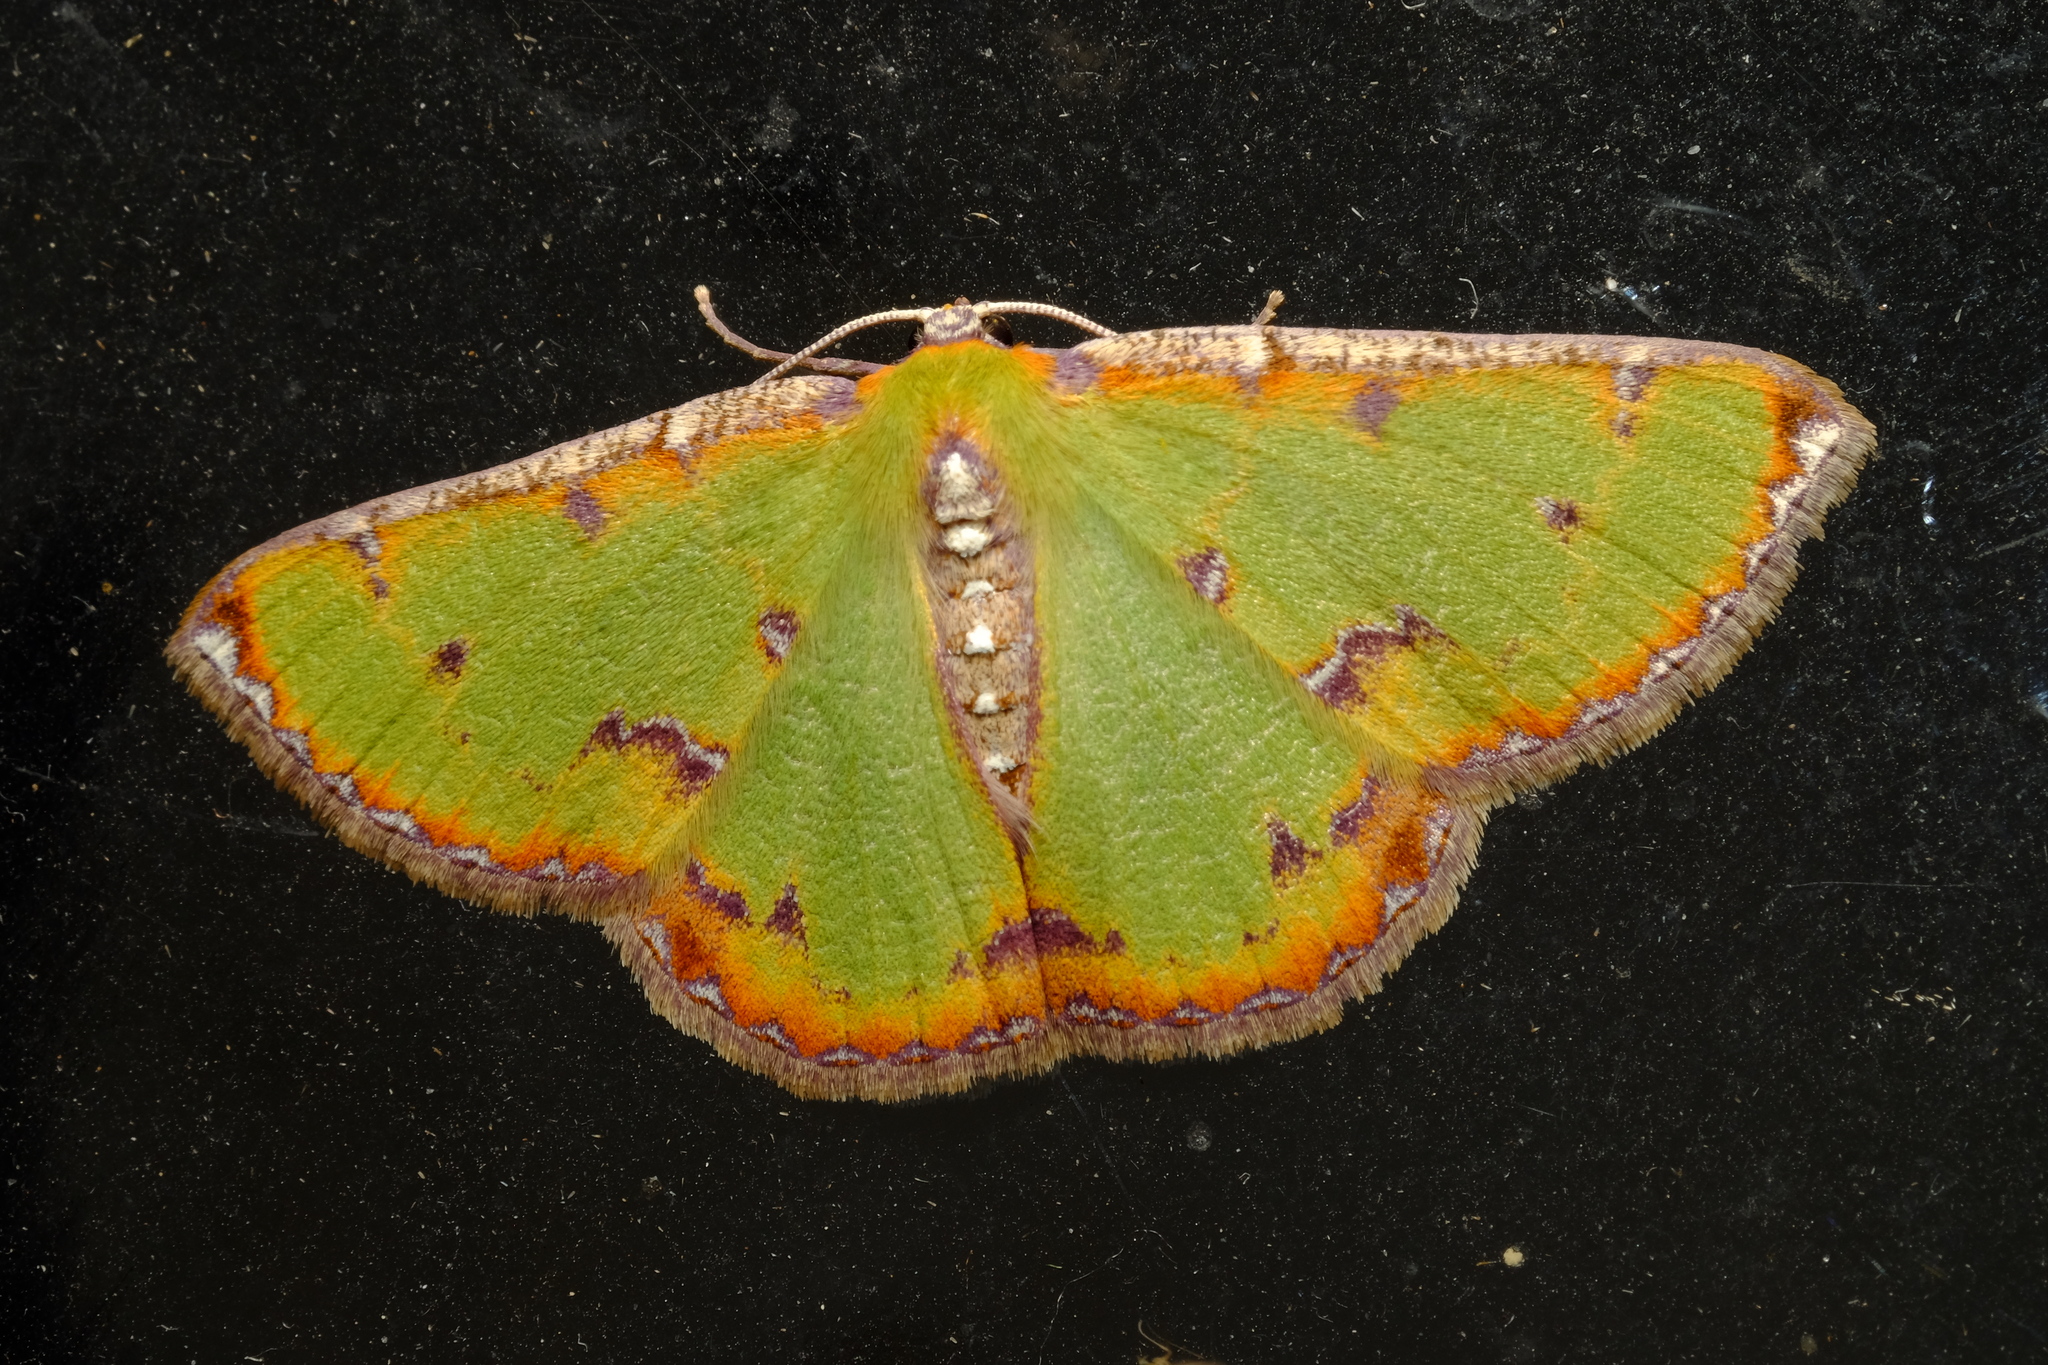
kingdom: Animalia
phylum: Arthropoda
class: Insecta
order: Lepidoptera
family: Geometridae
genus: Eucyclodes
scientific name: Eucyclodes buprestaria
